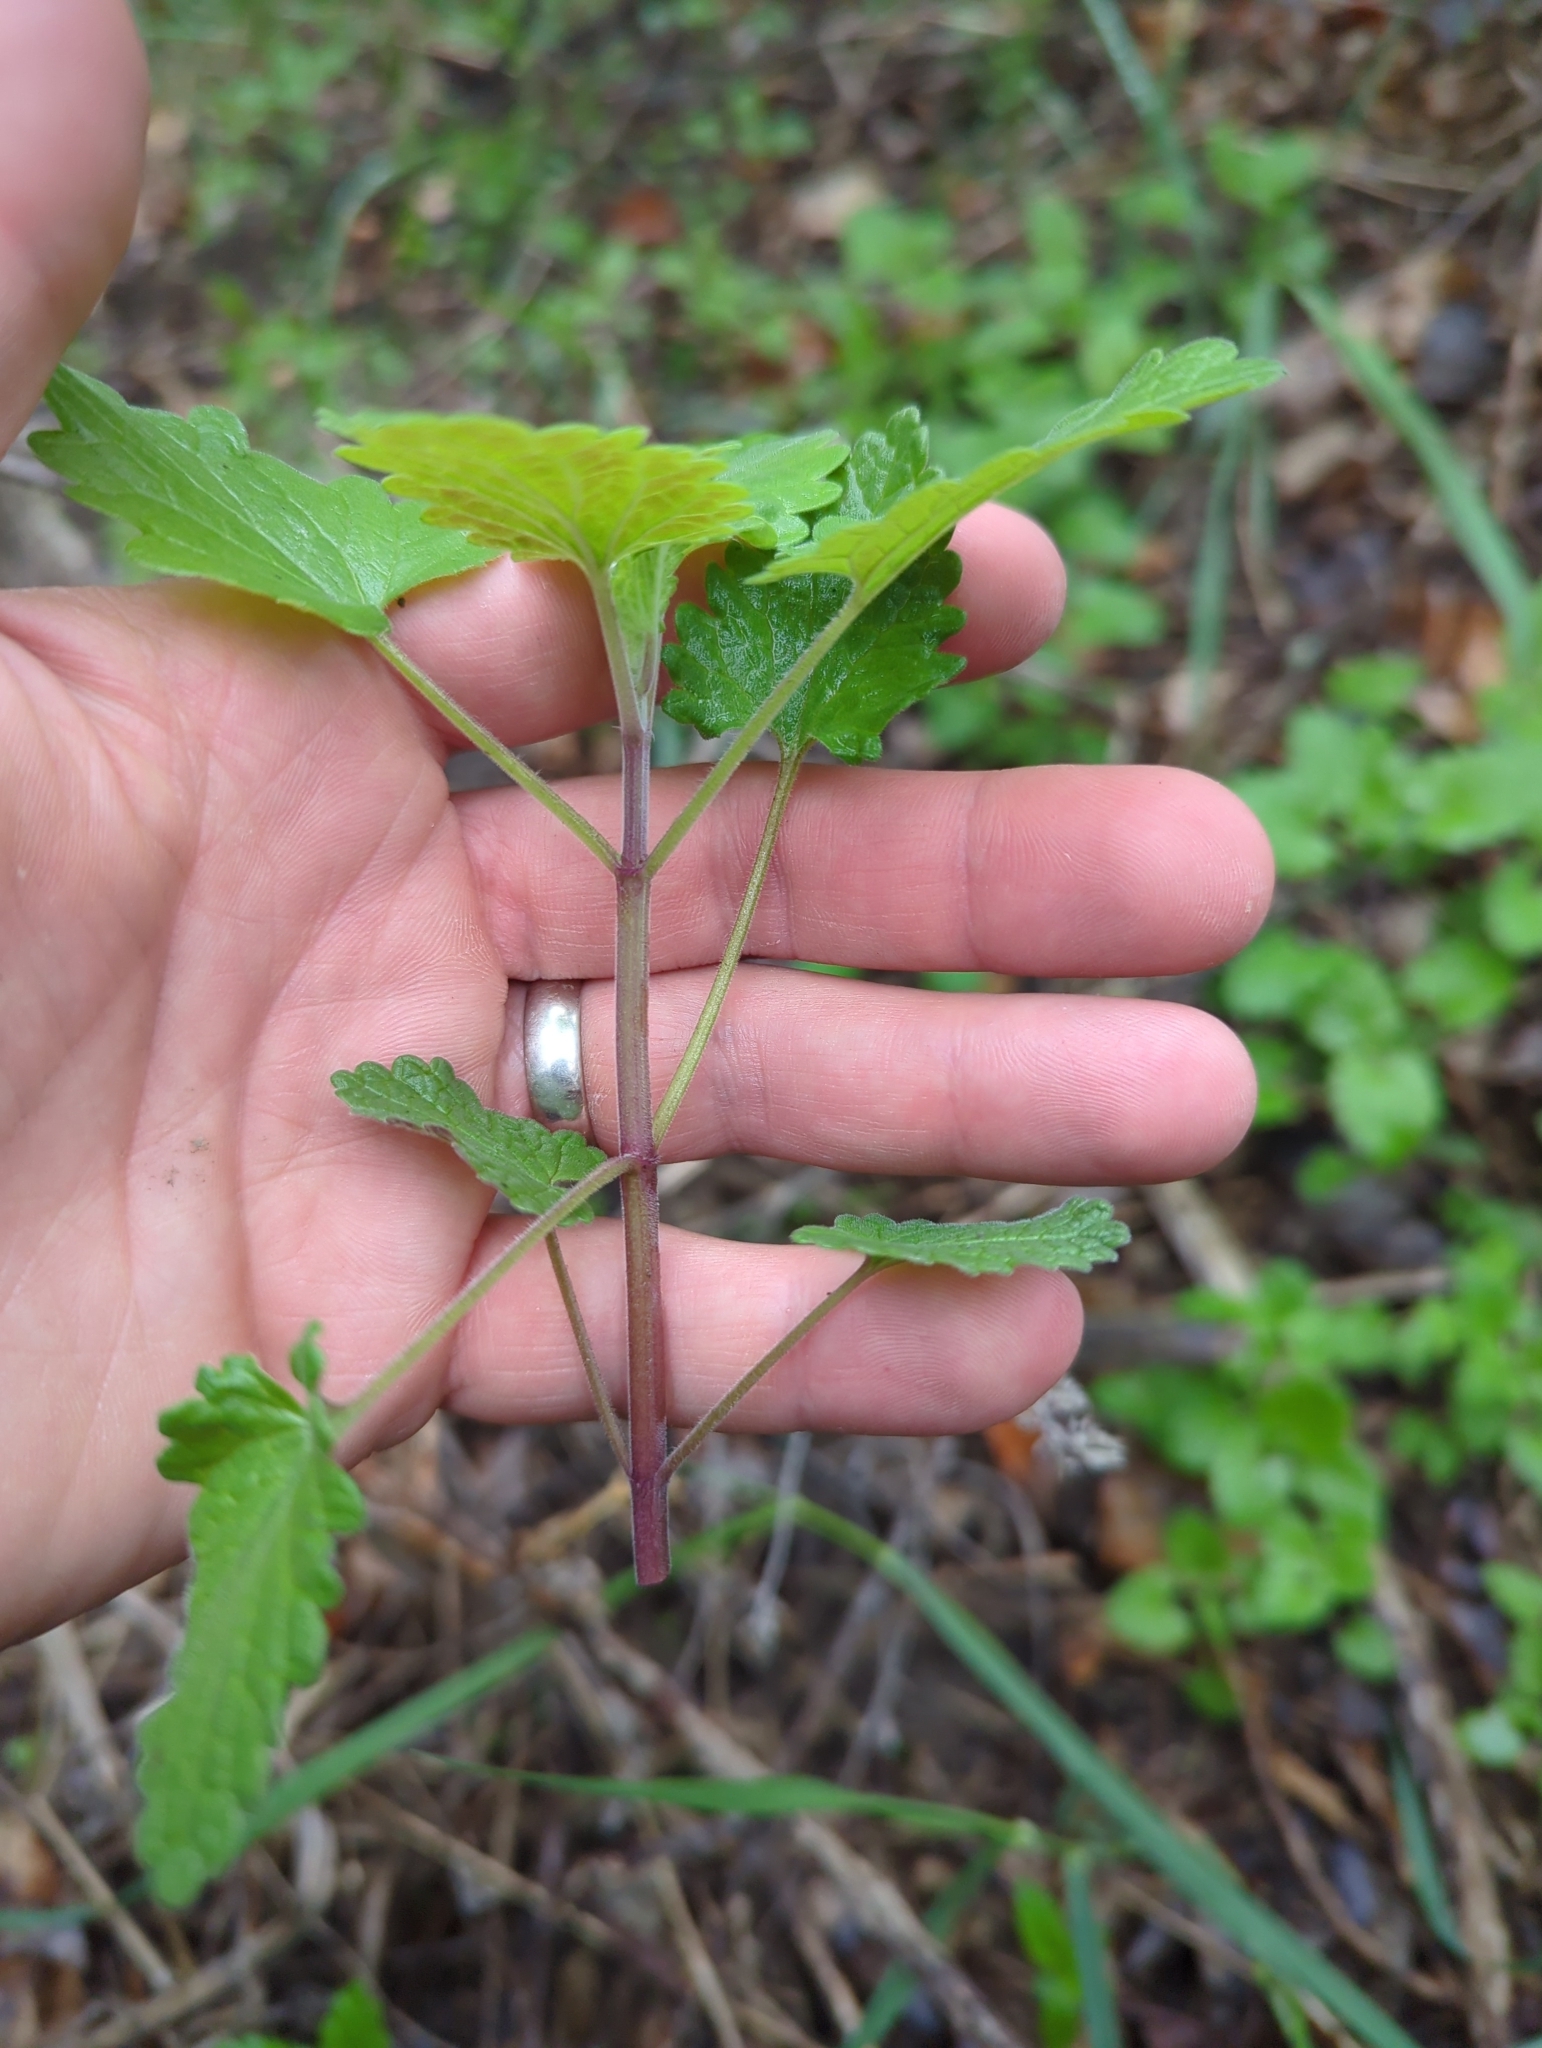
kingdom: Plantae
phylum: Tracheophyta
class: Magnoliopsida
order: Lamiales
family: Lamiaceae
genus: Nepeta
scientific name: Nepeta cataria
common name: Catnip
